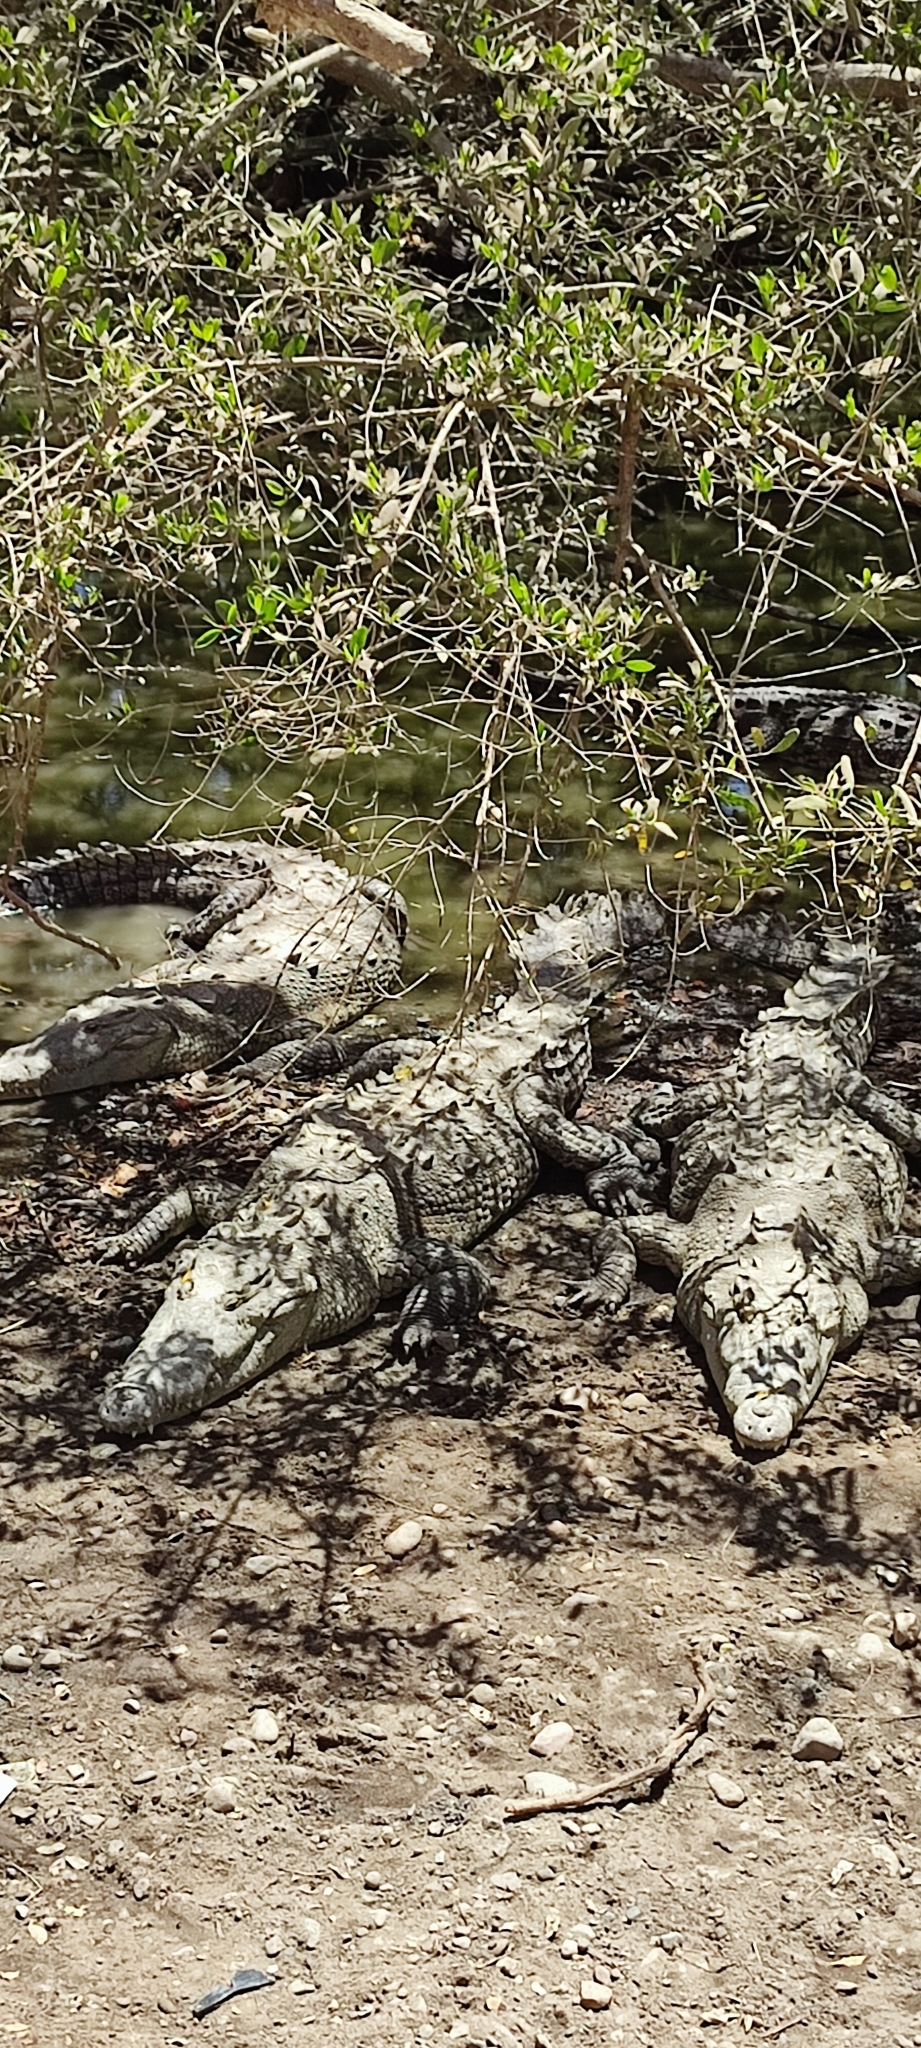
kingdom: Animalia
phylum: Chordata
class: Crocodylia
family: Crocodylidae
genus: Crocodylus
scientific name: Crocodylus acutus
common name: American crocodile
